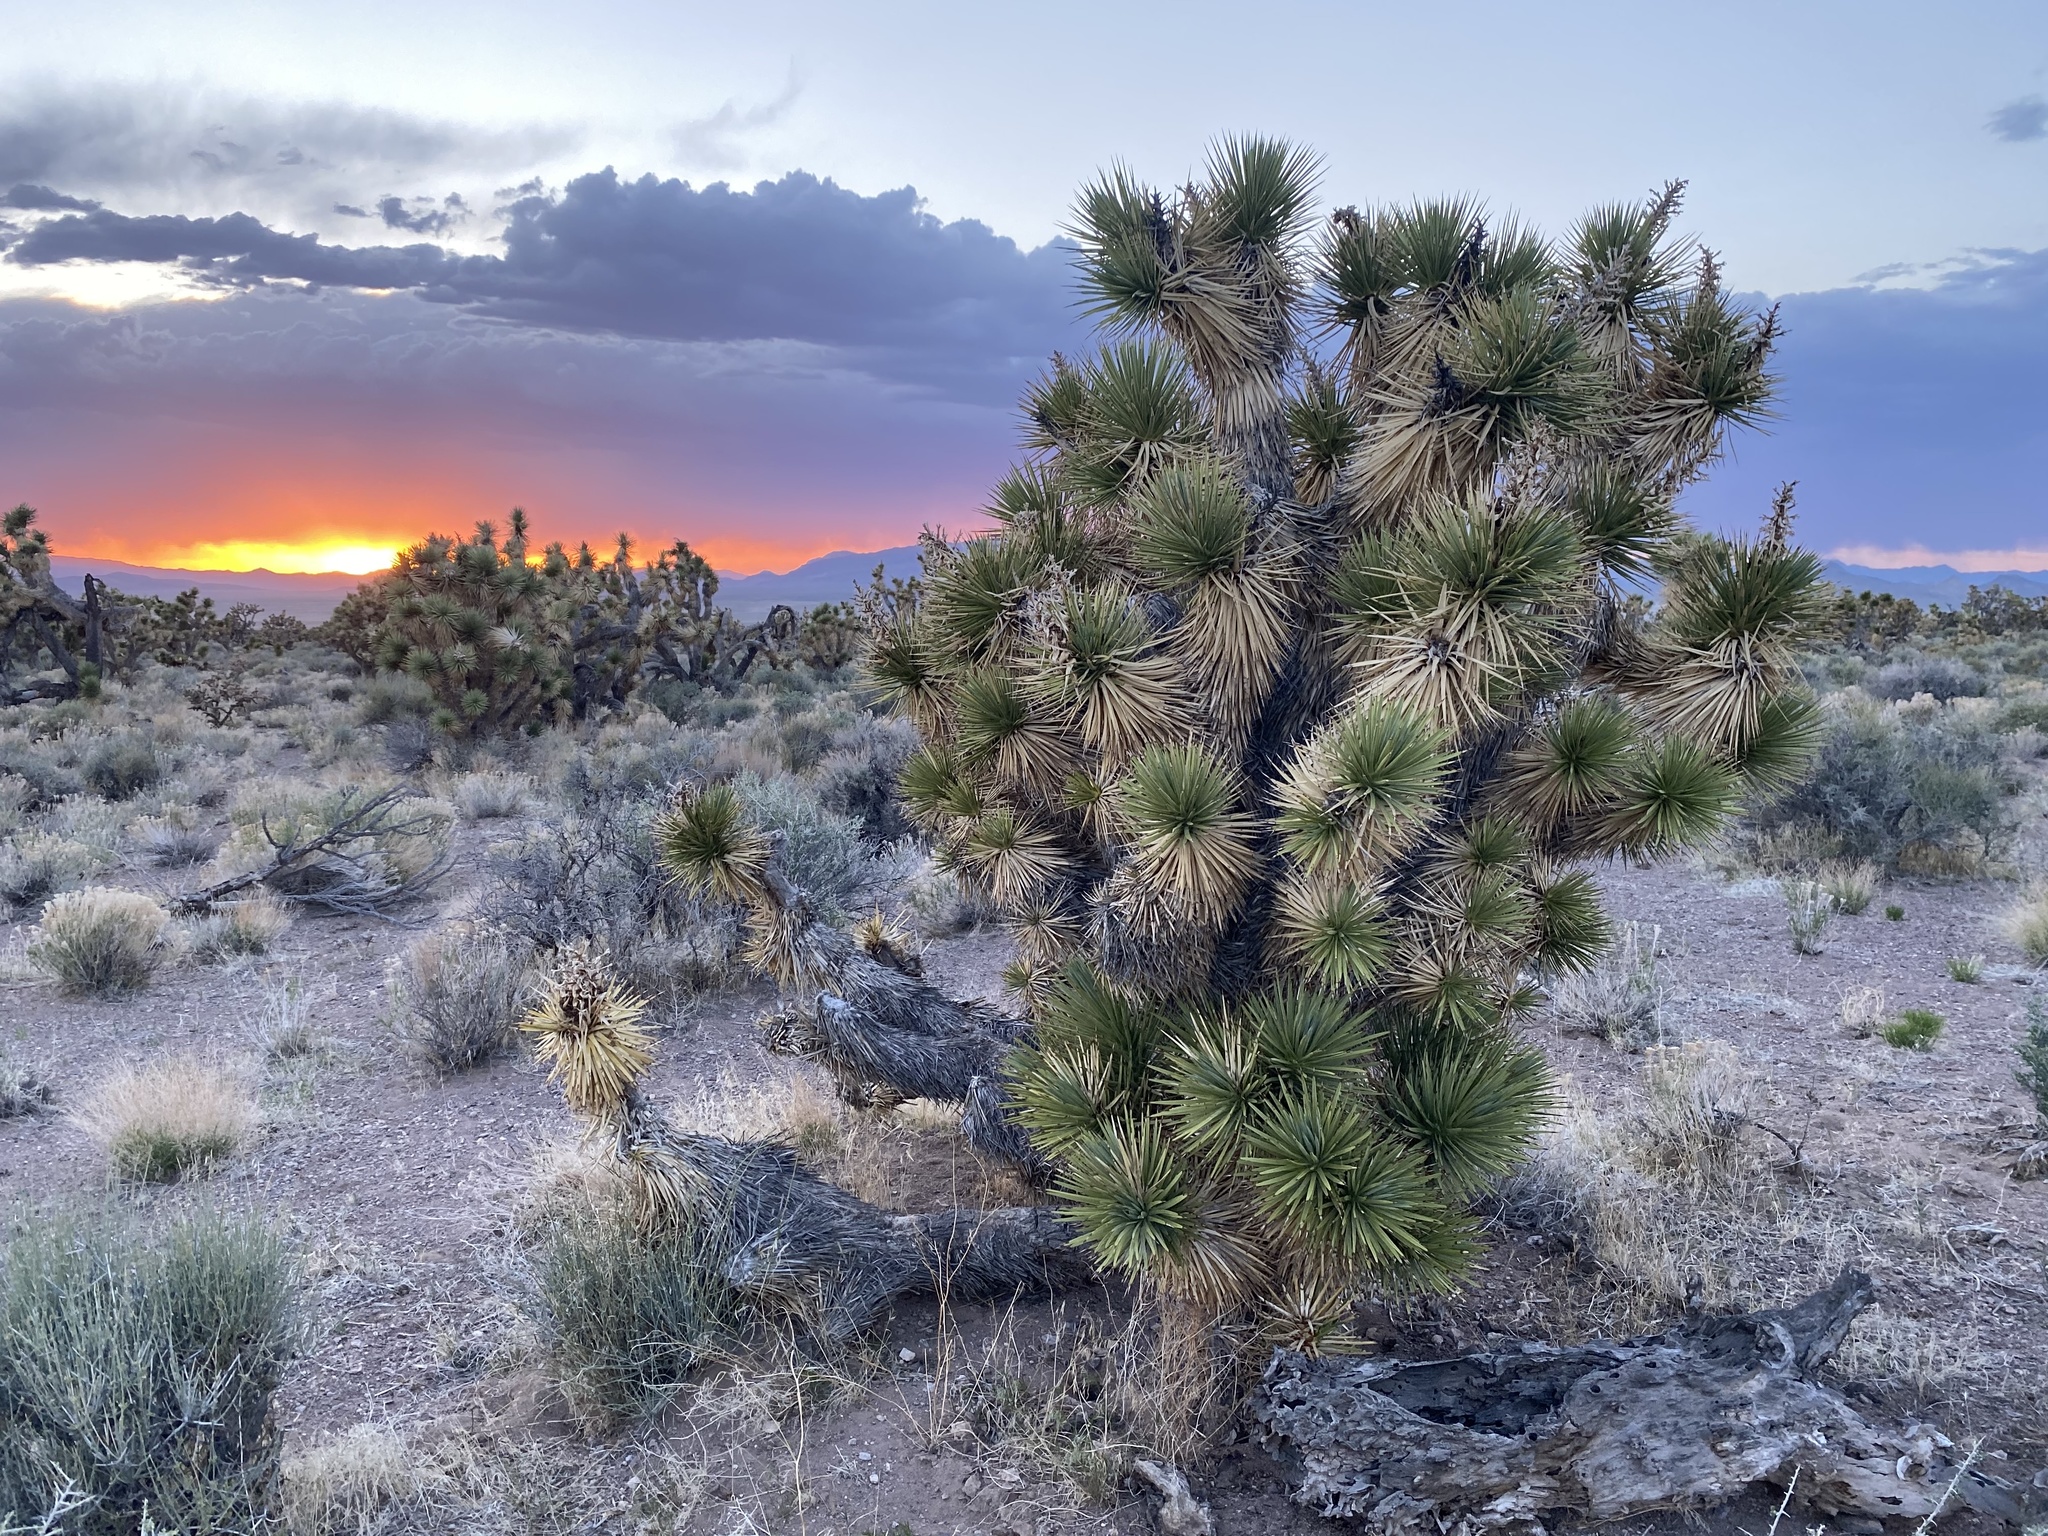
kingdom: Plantae
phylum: Tracheophyta
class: Liliopsida
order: Asparagales
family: Asparagaceae
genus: Yucca
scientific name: Yucca brevifolia
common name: Joshua tree
